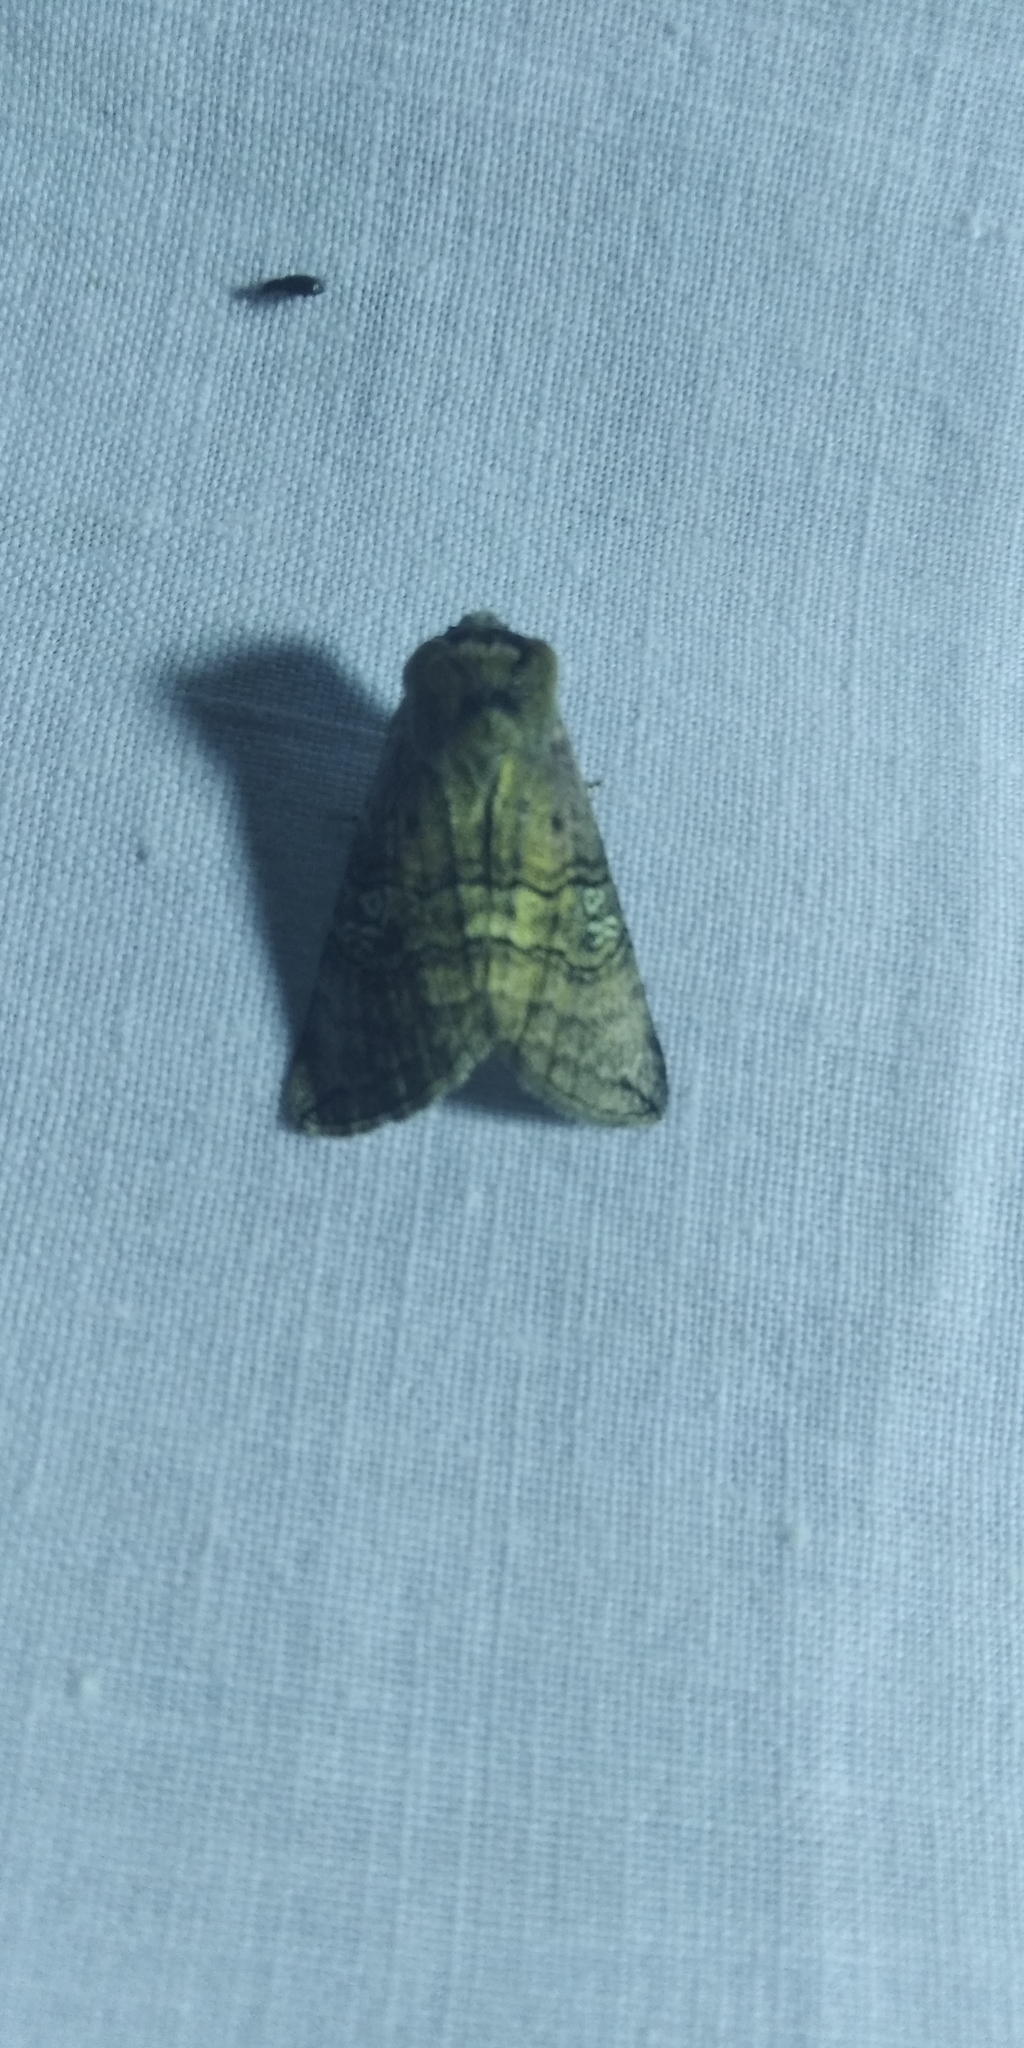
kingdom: Animalia
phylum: Arthropoda
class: Insecta
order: Lepidoptera
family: Drepanidae
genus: Tethea
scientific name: Tethea ocularis
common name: Figure of eighty
